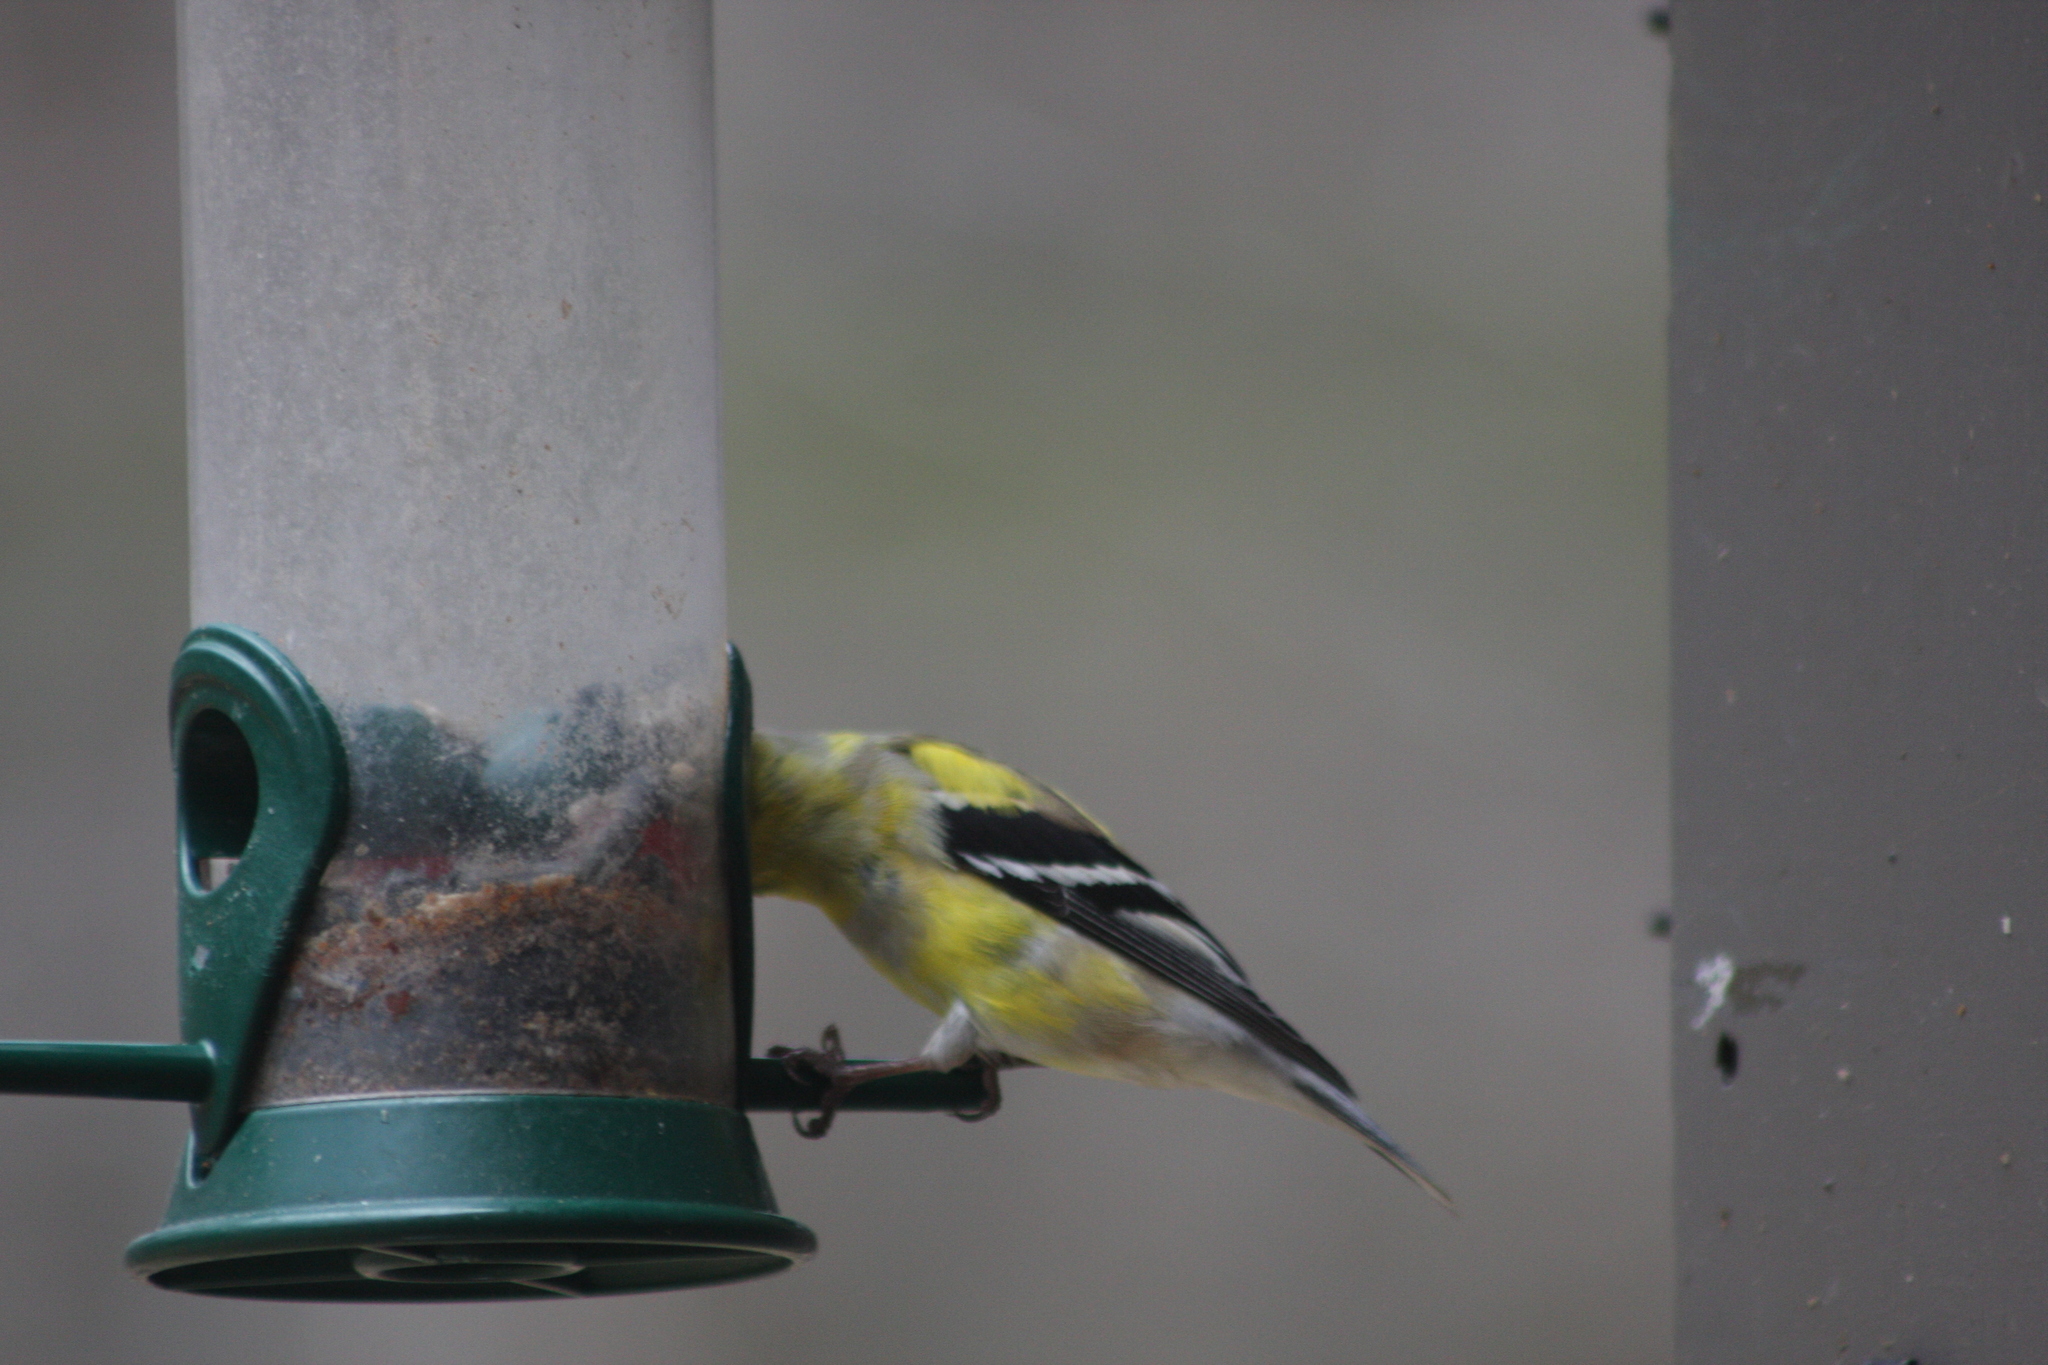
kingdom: Animalia
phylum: Chordata
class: Aves
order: Passeriformes
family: Fringillidae
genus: Spinus
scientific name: Spinus tristis
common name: American goldfinch
